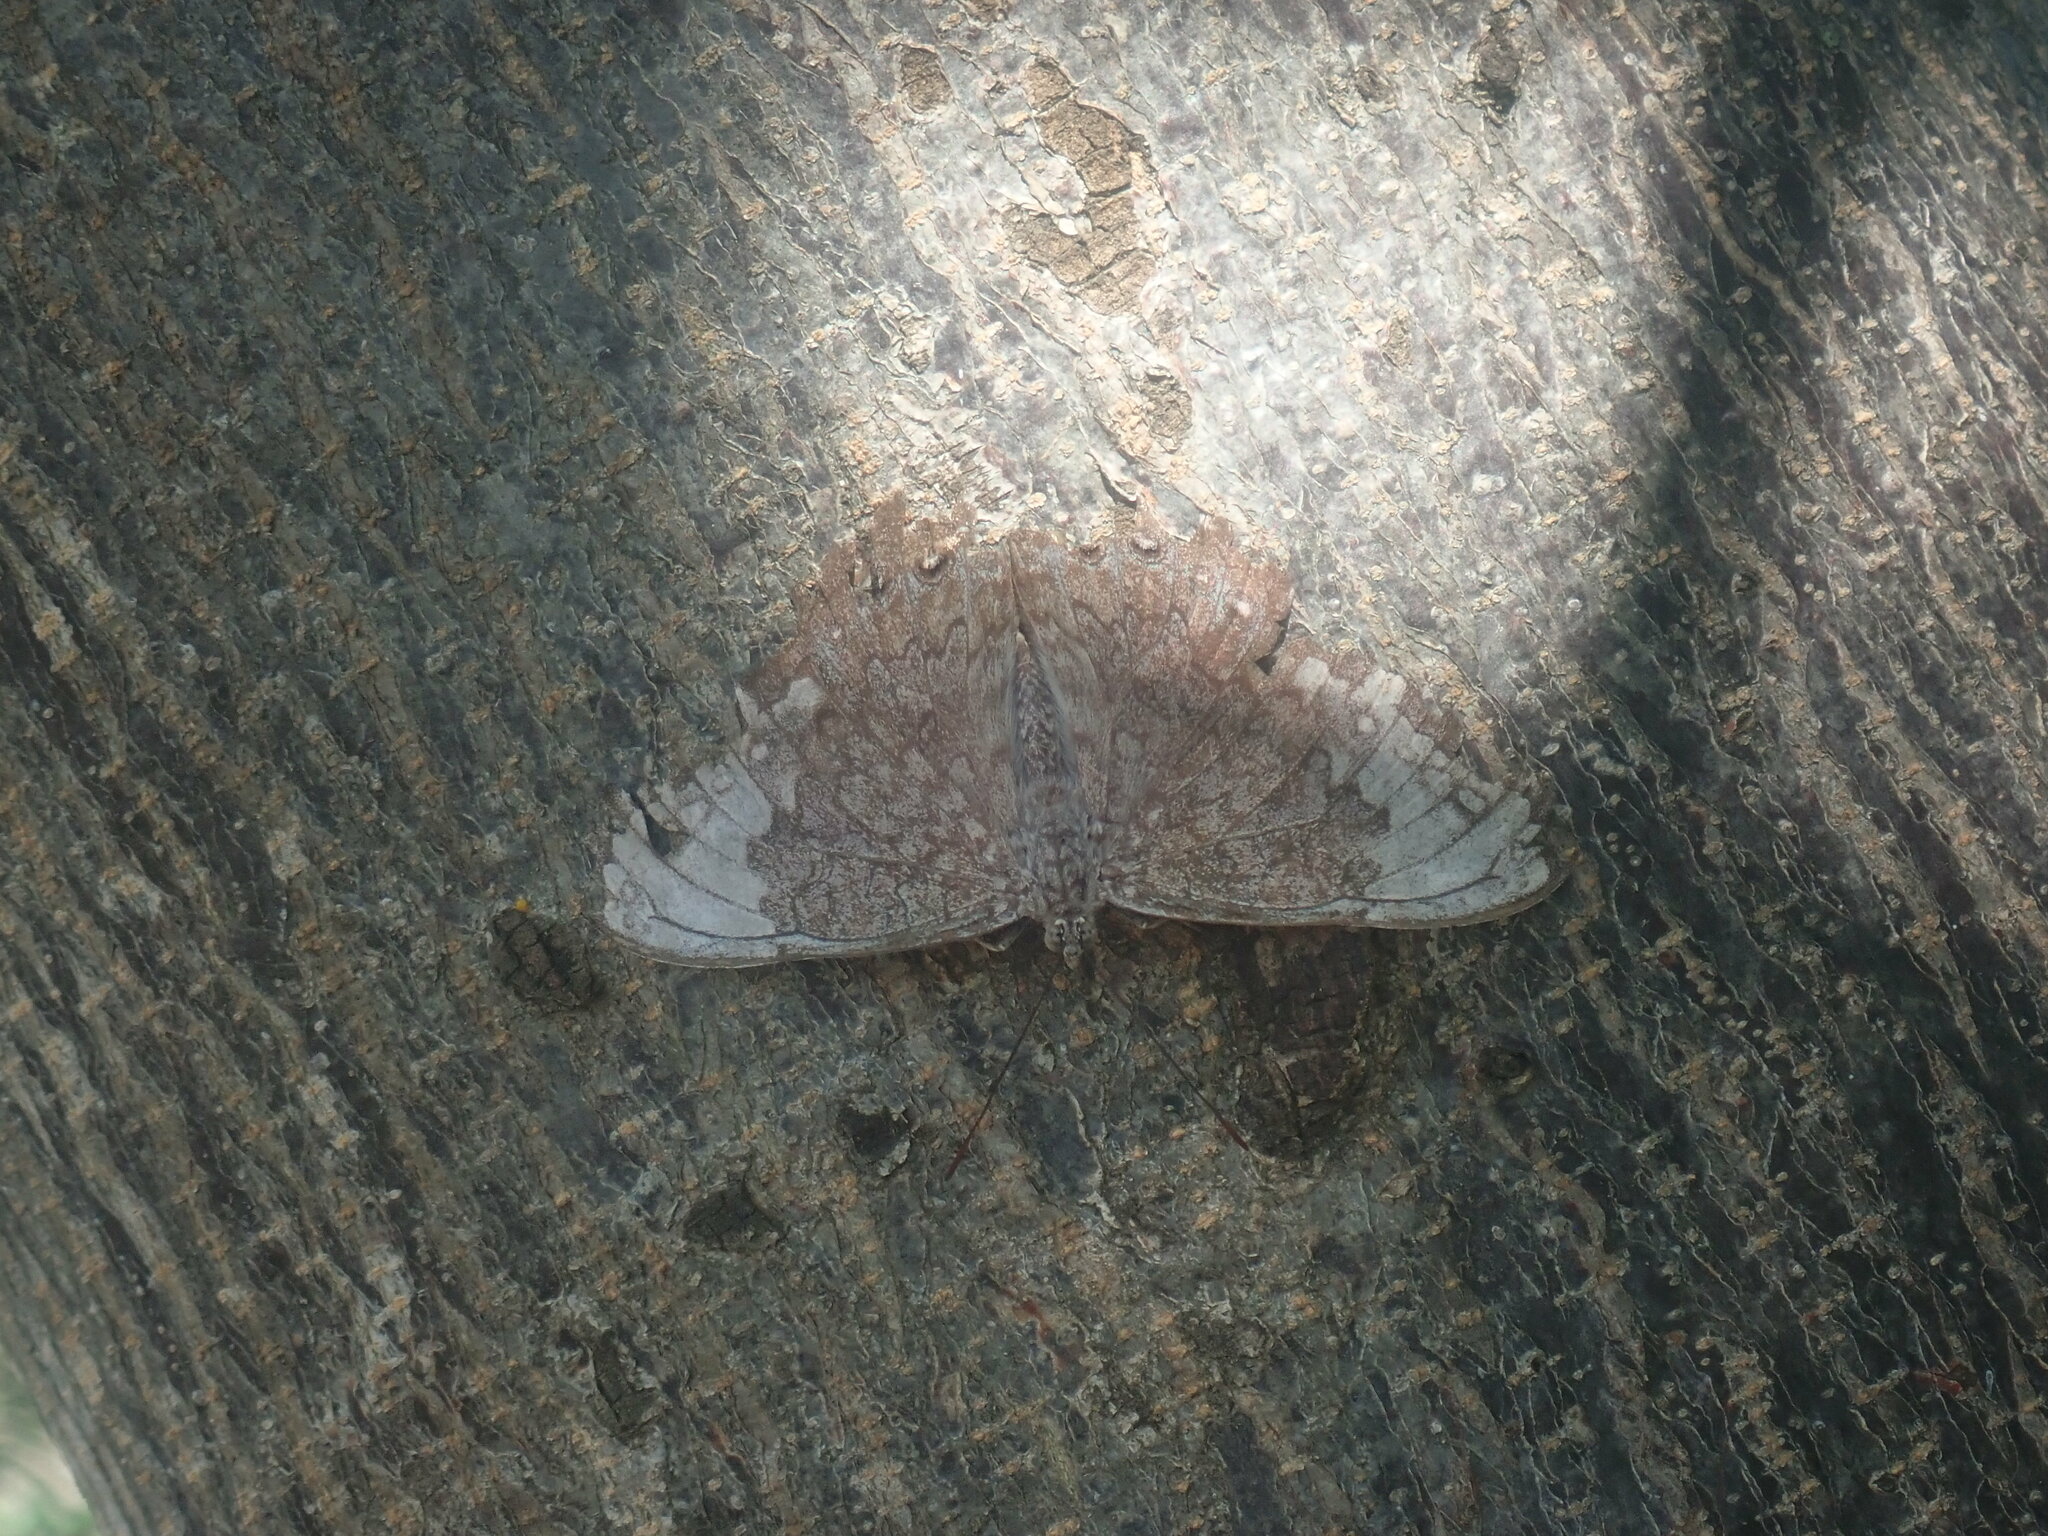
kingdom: Animalia
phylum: Arthropoda
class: Insecta
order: Lepidoptera
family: Nymphalidae
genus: Hamadryas
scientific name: Hamadryas glauconome
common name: Glaucous cracker
